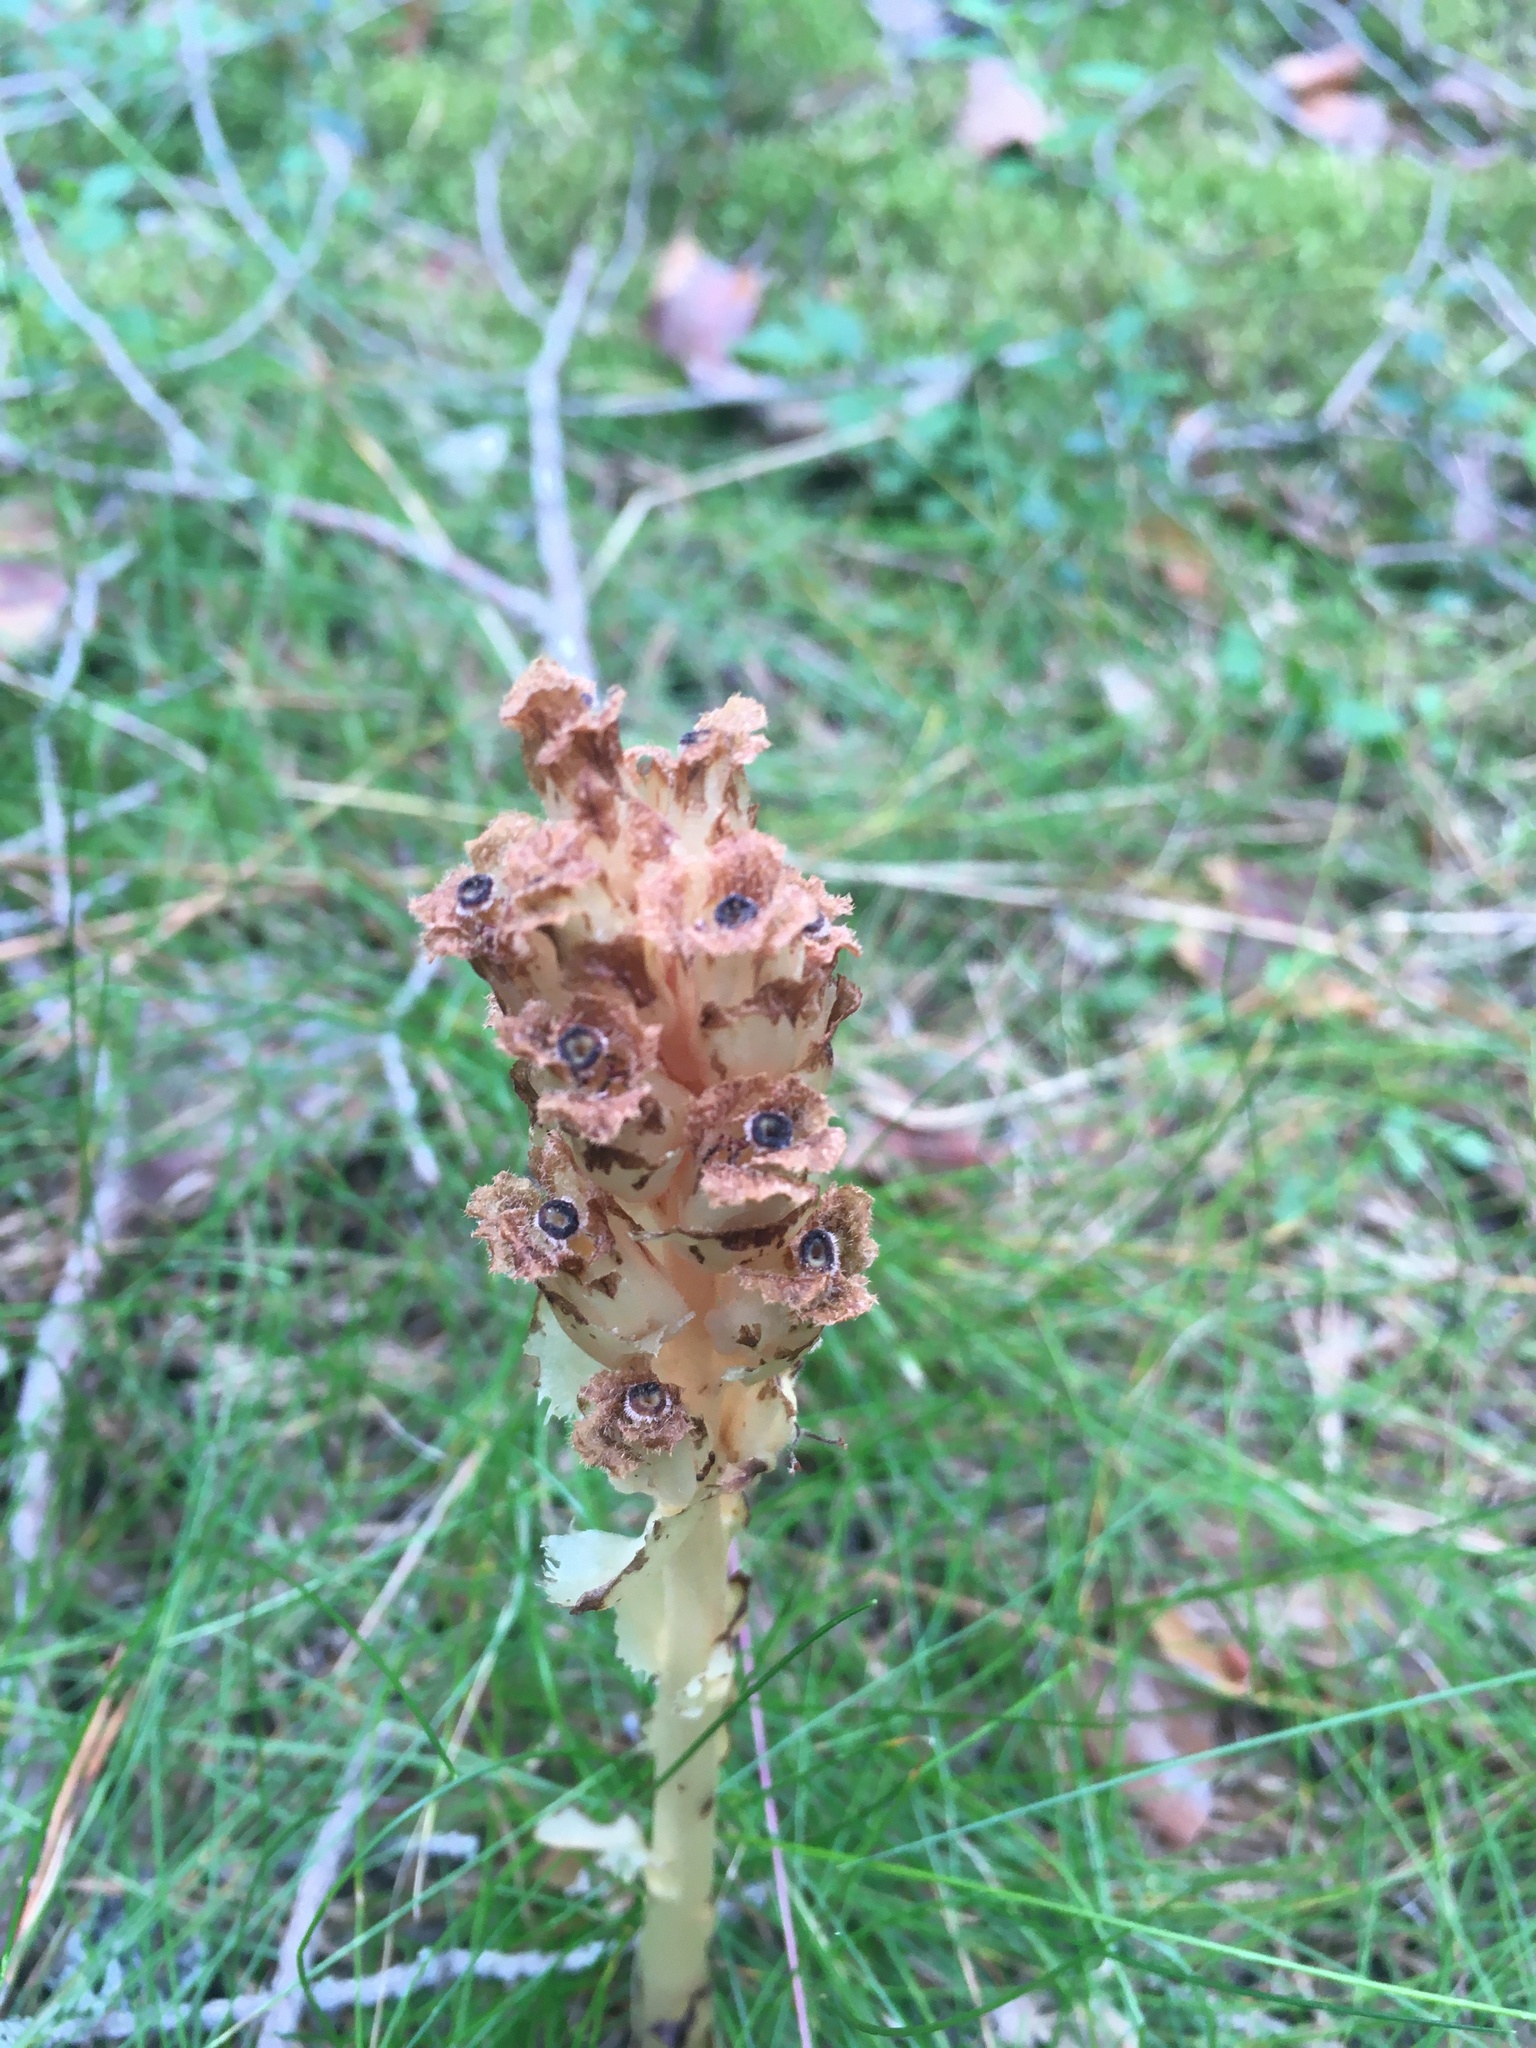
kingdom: Plantae
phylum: Tracheophyta
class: Magnoliopsida
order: Ericales
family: Ericaceae
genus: Hypopitys
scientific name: Hypopitys monotropa
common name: Yellow bird's-nest
